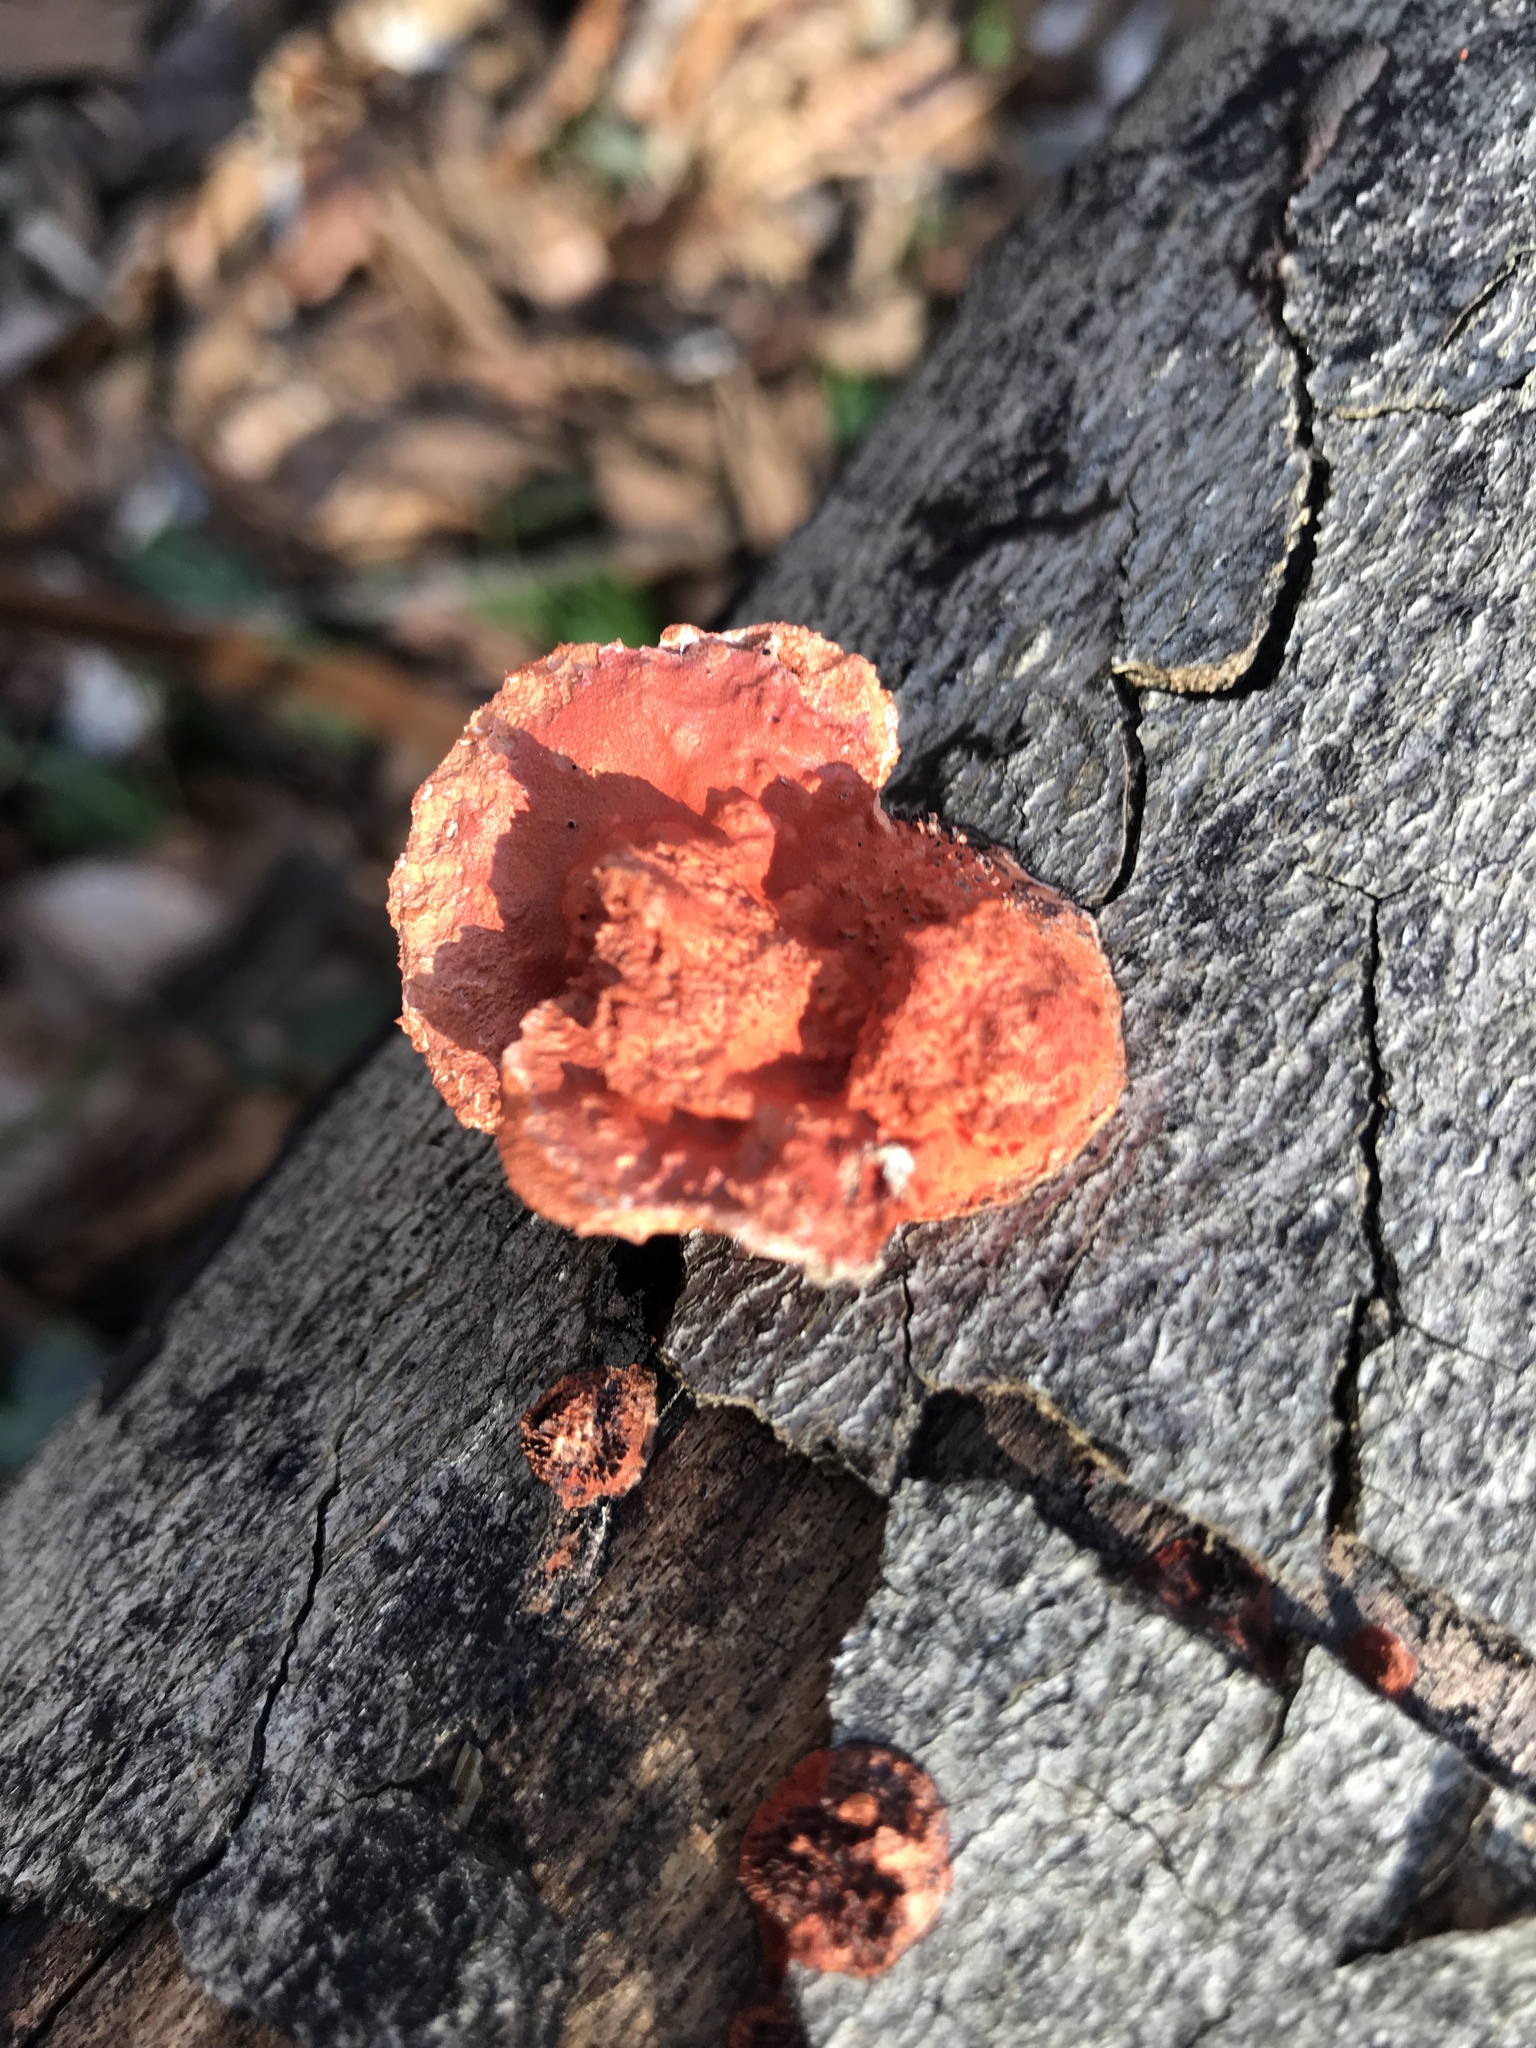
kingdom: Fungi
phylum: Basidiomycota
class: Agaricomycetes
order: Polyporales
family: Polyporaceae
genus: Trametes
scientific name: Trametes cinnabarina
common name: Northern cinnabar polypore
